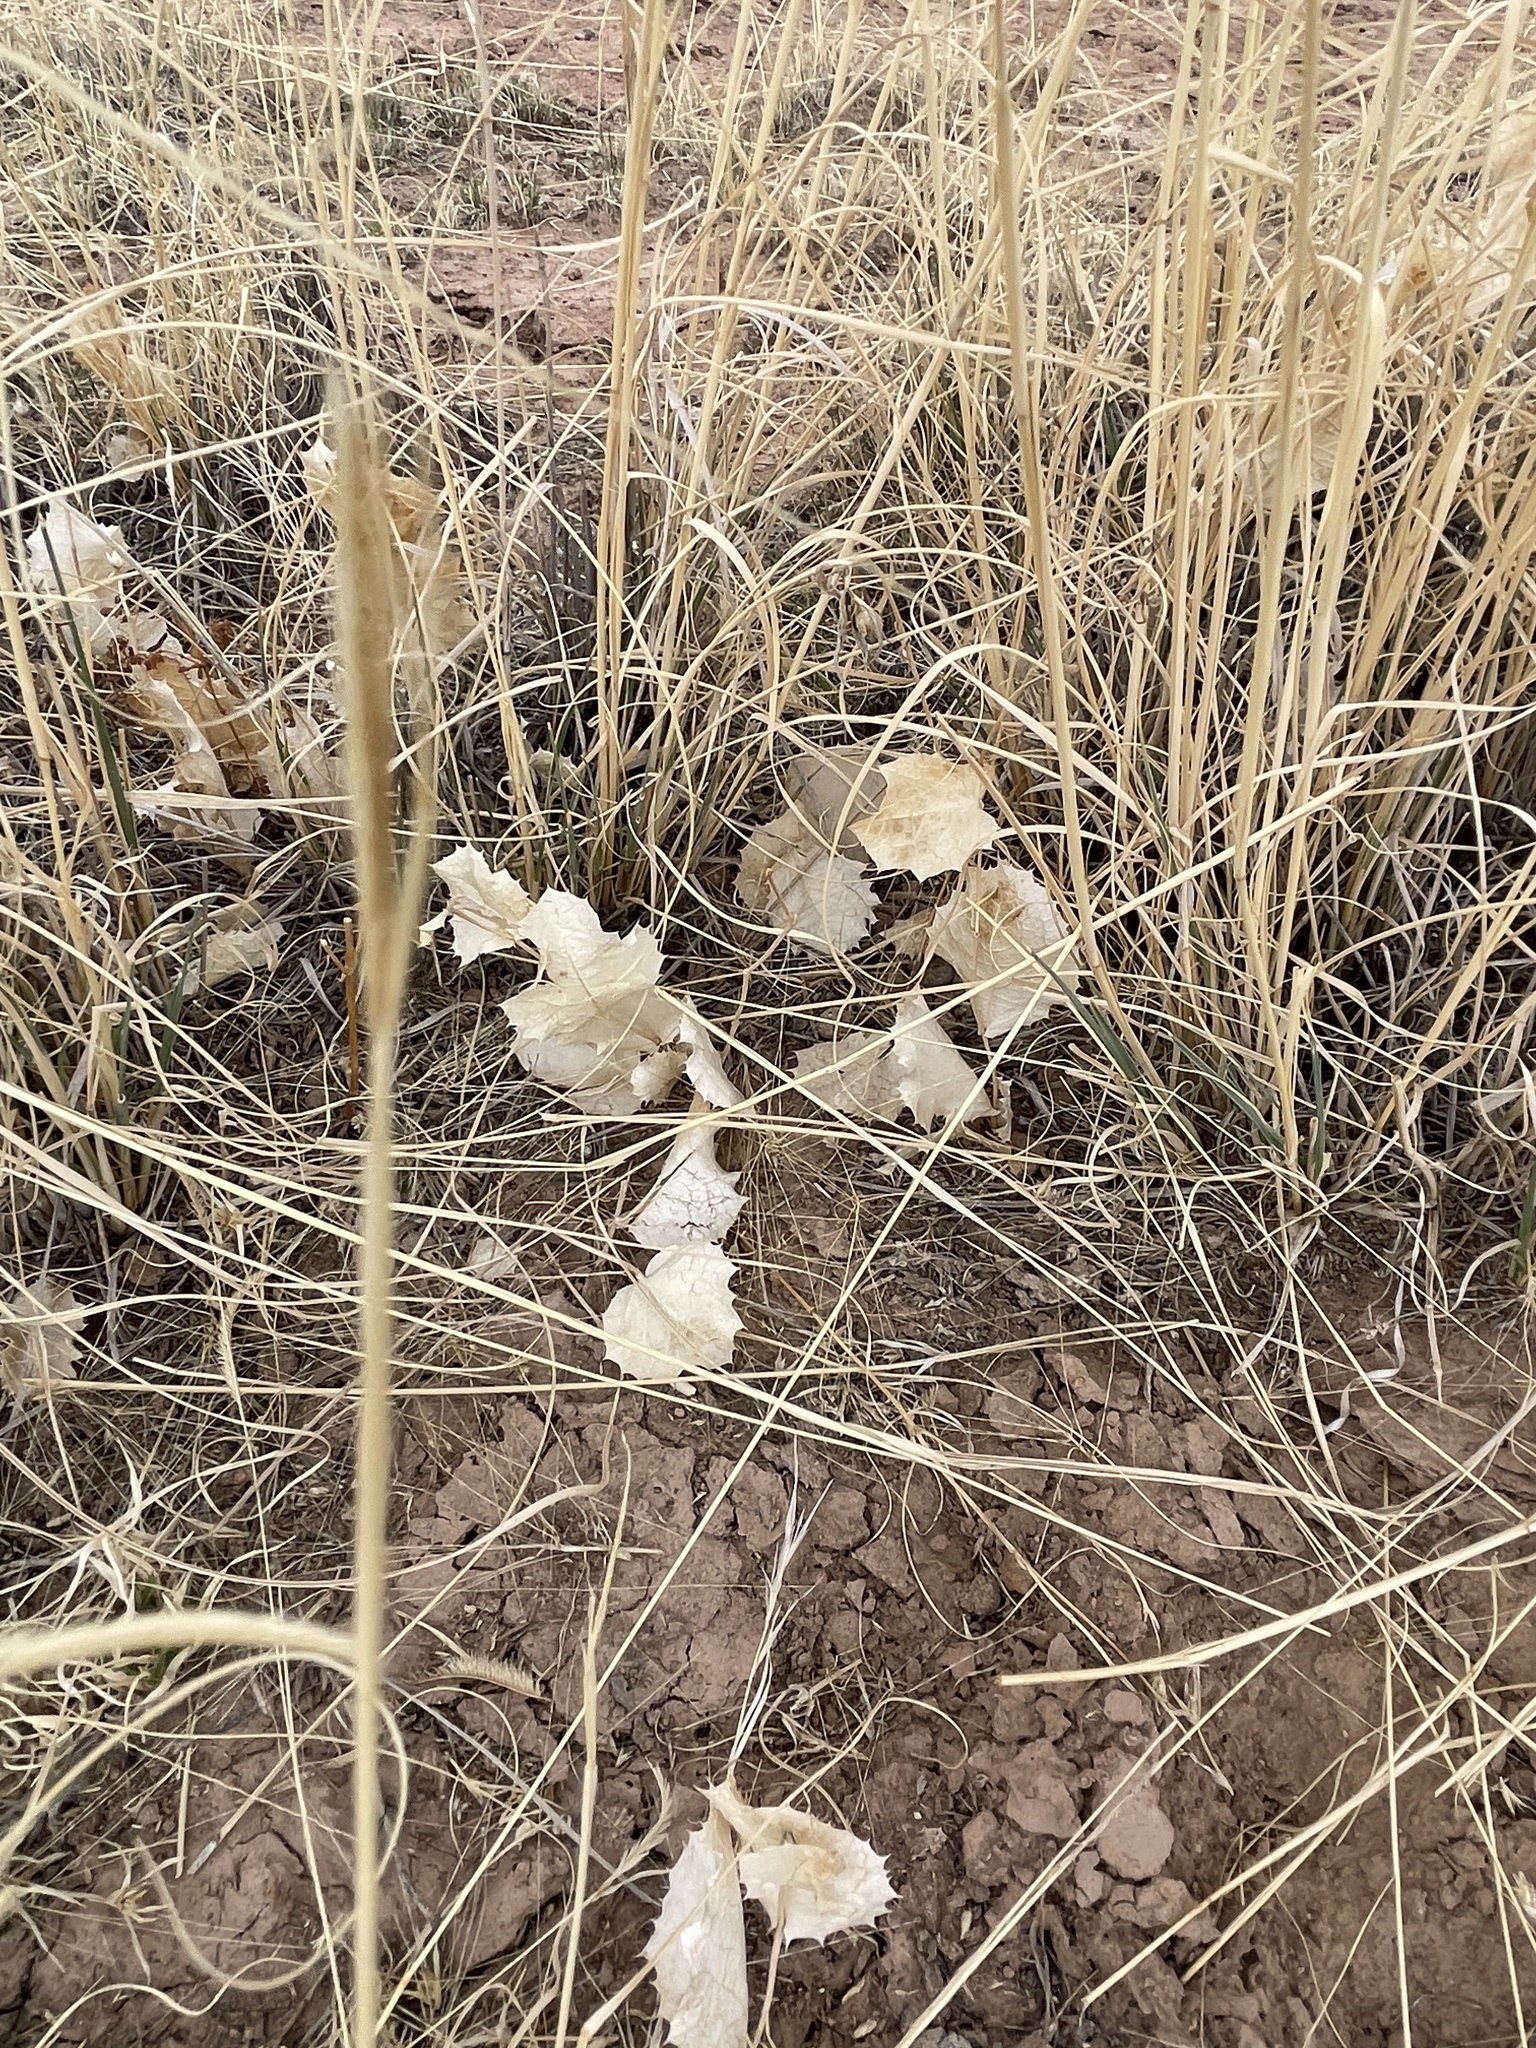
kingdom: Plantae
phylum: Tracheophyta
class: Magnoliopsida
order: Asterales
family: Asteraceae
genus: Acourtia
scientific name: Acourtia nana
